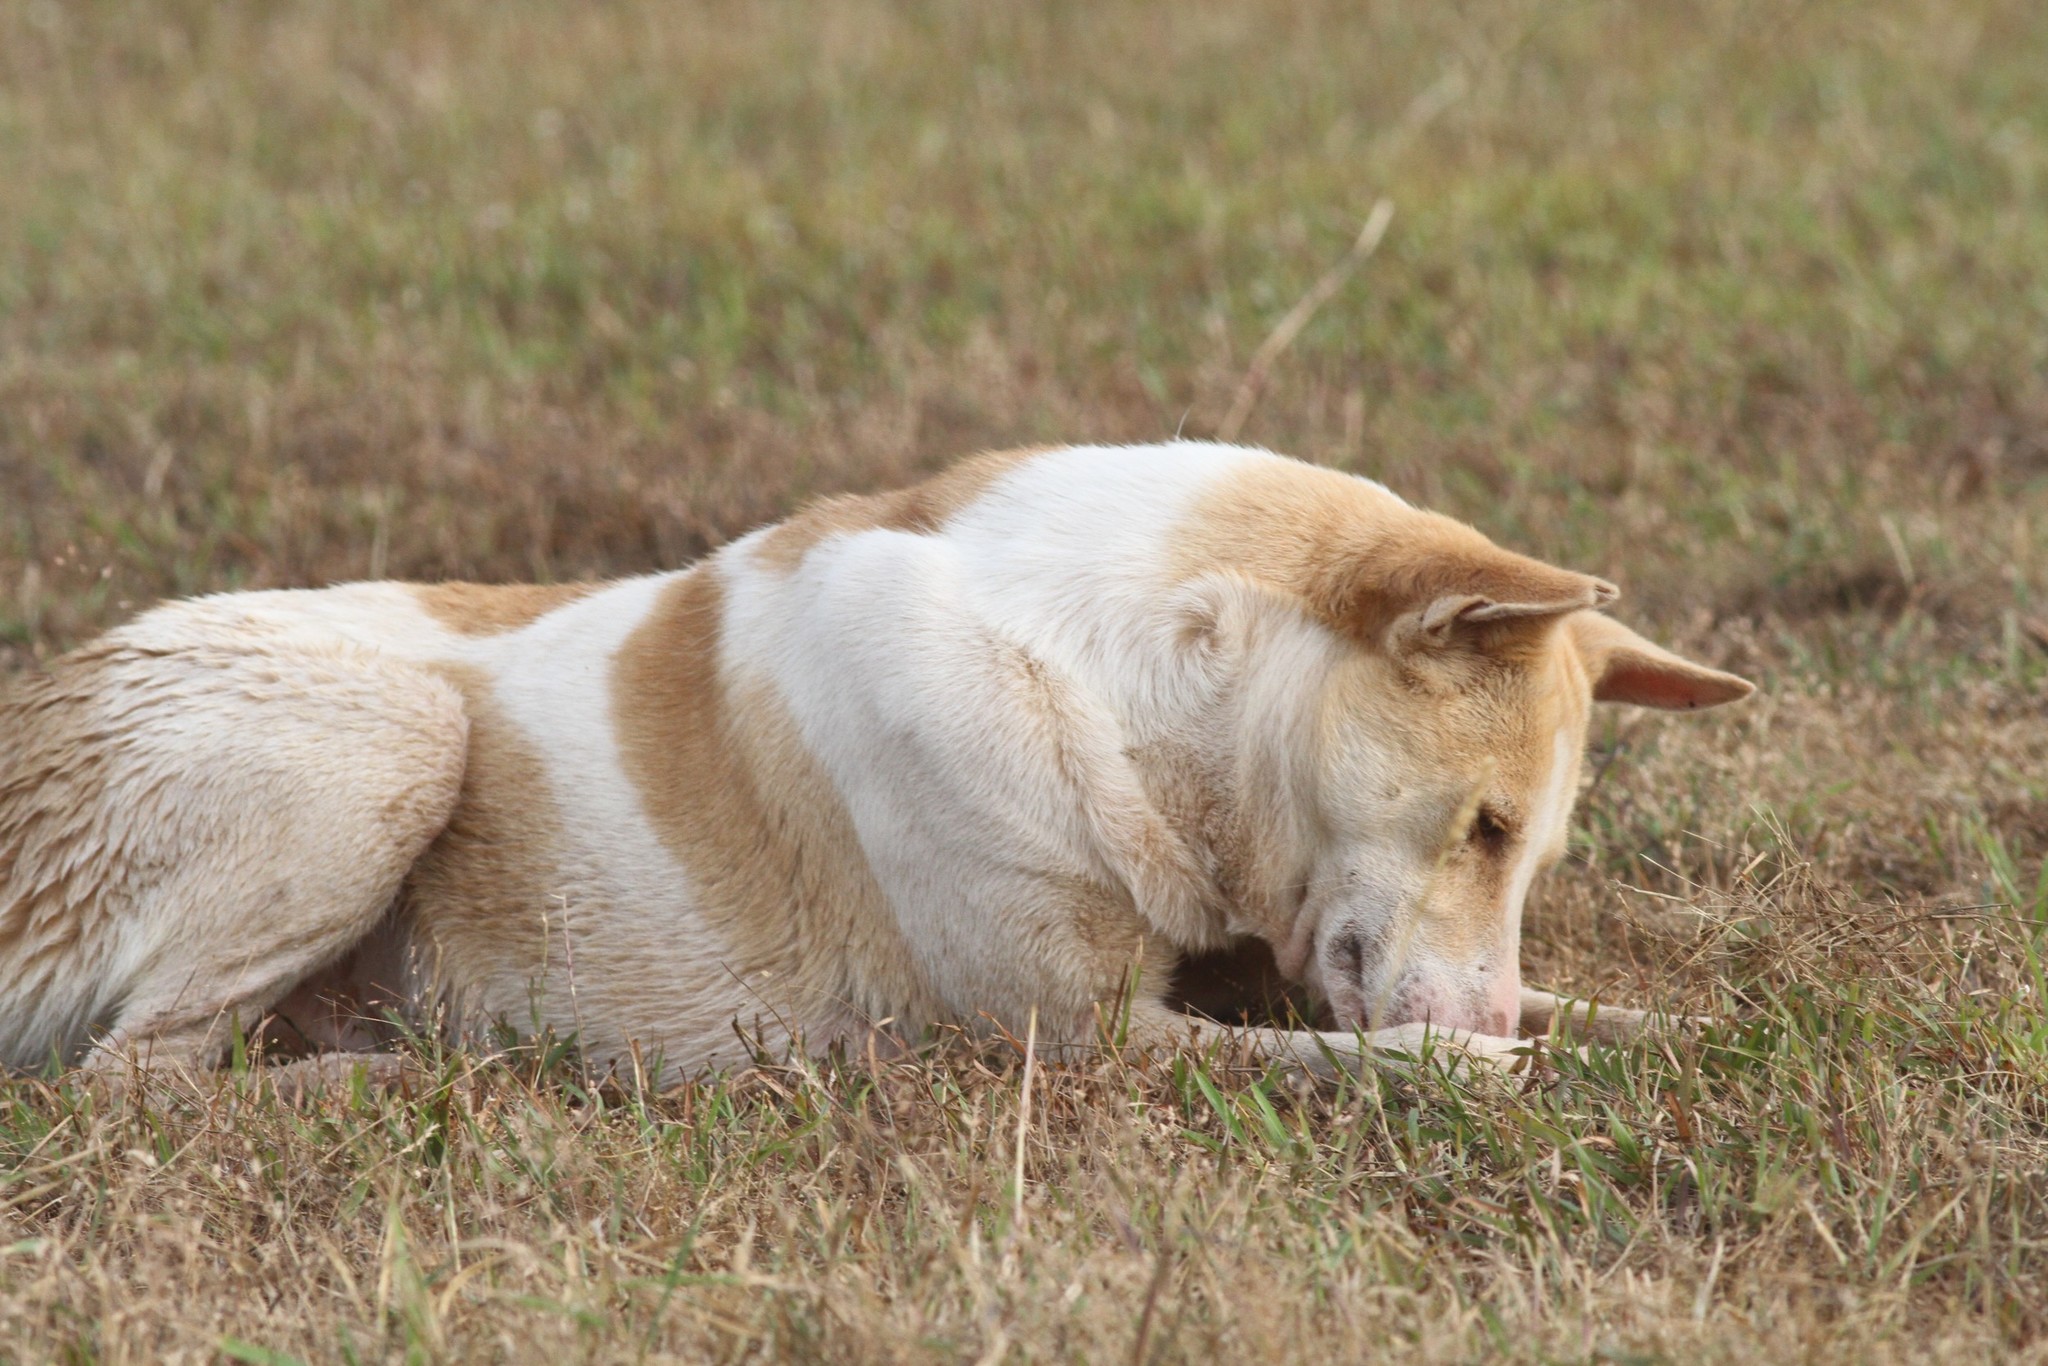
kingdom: Animalia
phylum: Chordata
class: Mammalia
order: Carnivora
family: Canidae
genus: Canis
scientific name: Canis lupus
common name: Gray wolf
